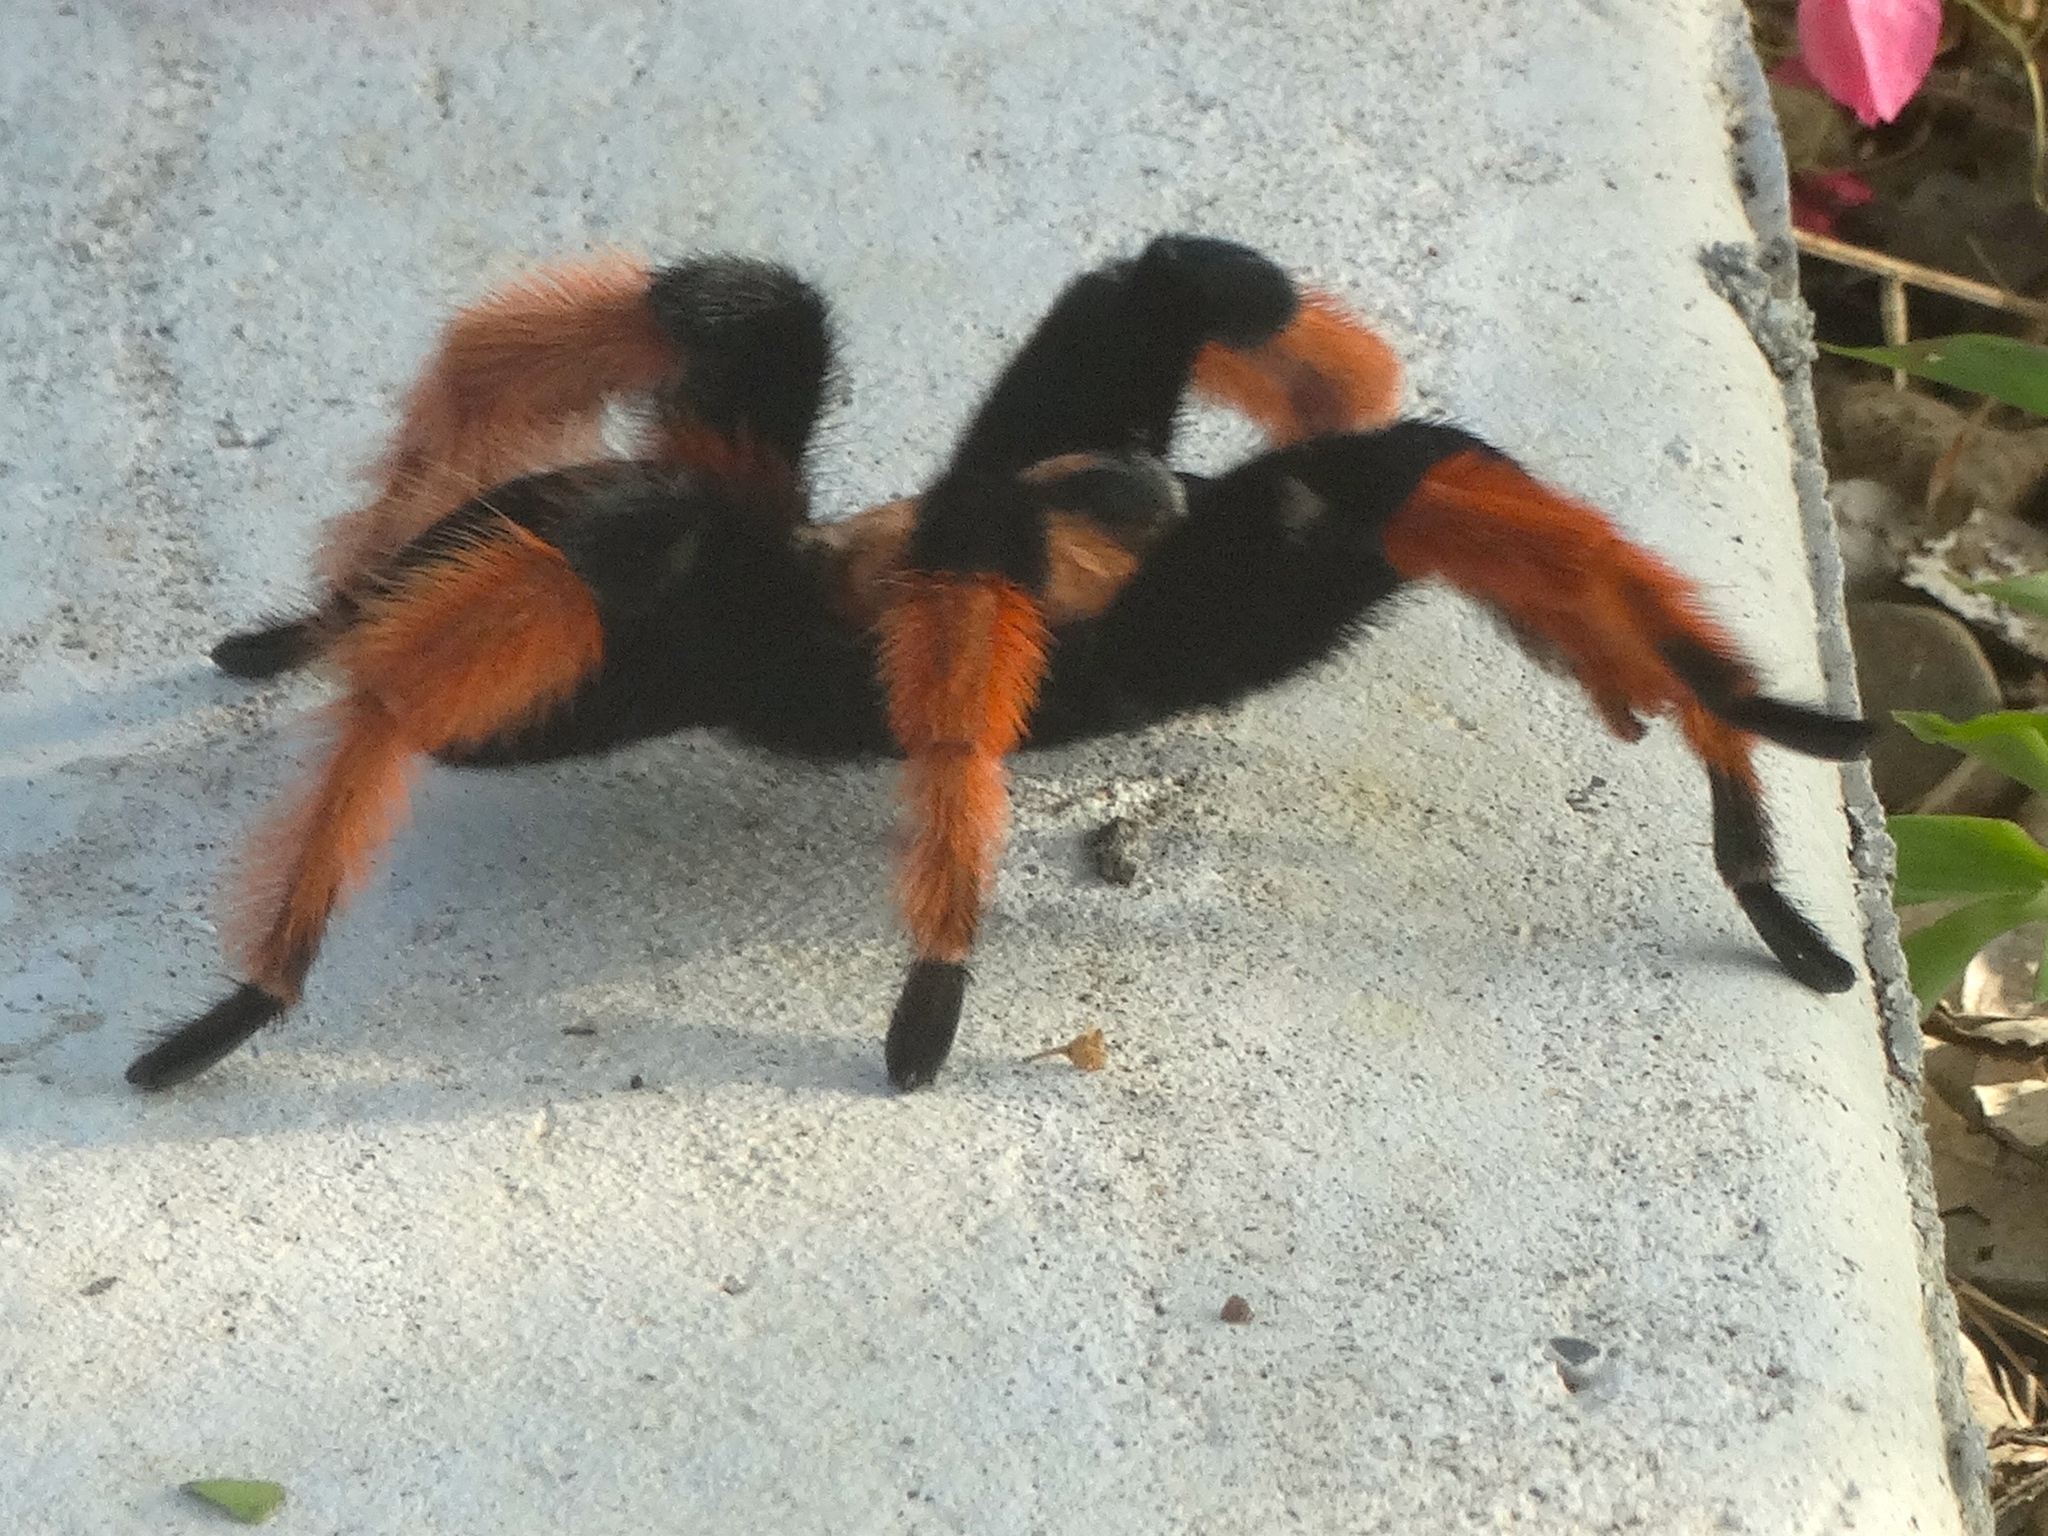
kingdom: Animalia
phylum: Arthropoda
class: Arachnida
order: Araneae
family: Theraphosidae
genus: Brachypelma
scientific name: Brachypelma emilia
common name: Mexican redleg
